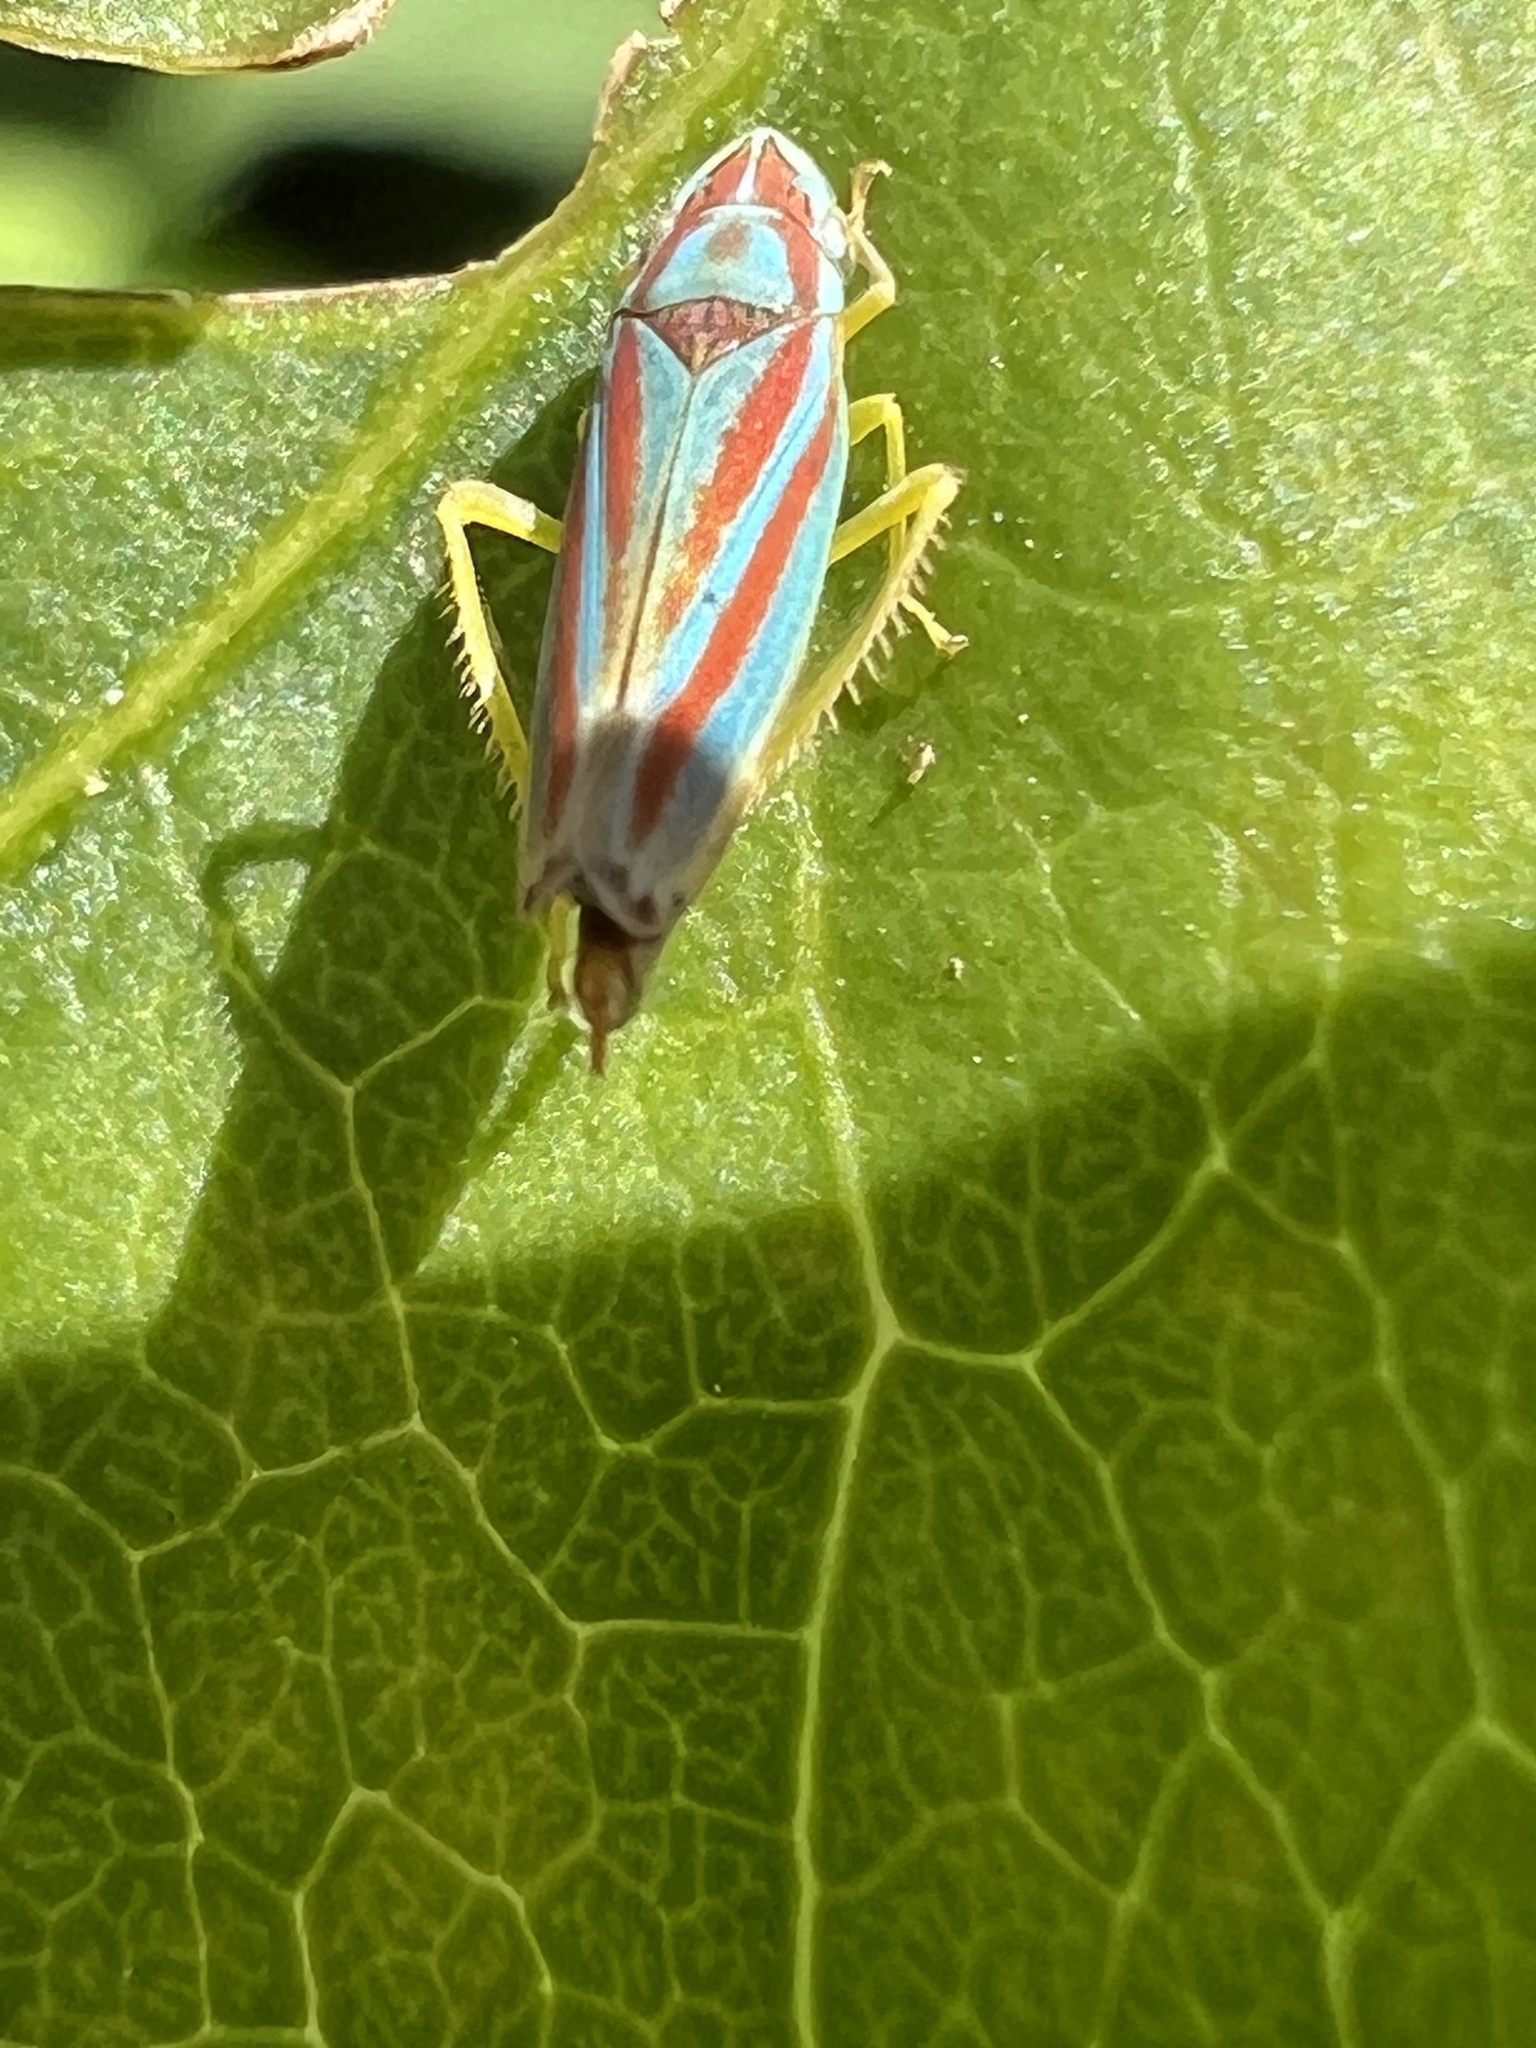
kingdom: Animalia
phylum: Arthropoda
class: Insecta
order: Hemiptera
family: Cicadellidae
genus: Graphocephala
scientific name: Graphocephala versuta
